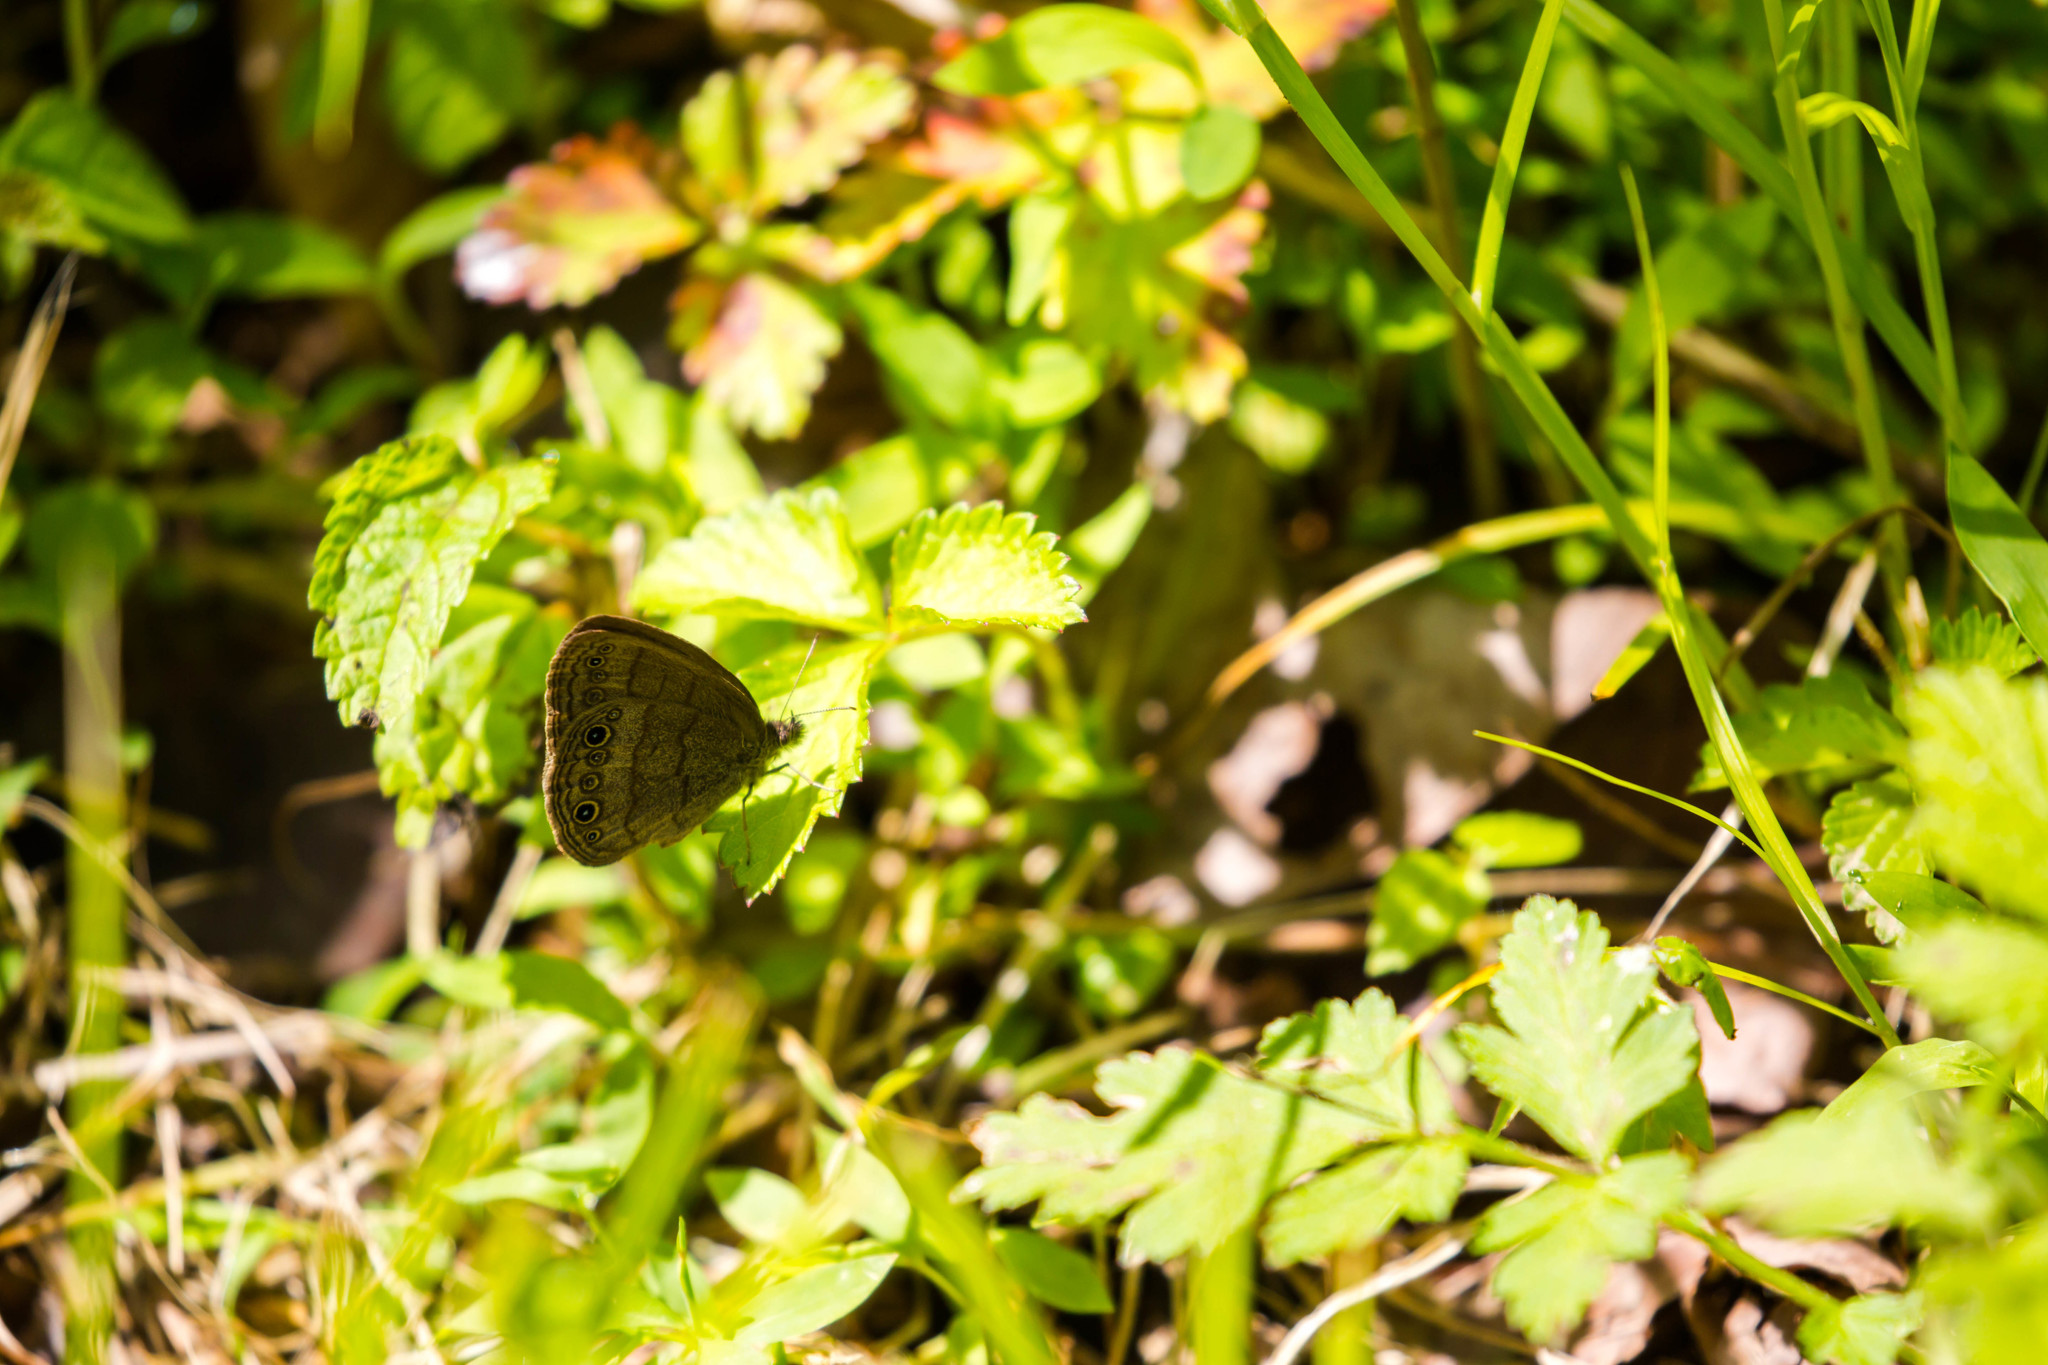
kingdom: Animalia
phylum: Arthropoda
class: Insecta
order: Lepidoptera
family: Nymphalidae
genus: Hermeuptychia
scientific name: Hermeuptychia hermes
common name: Hermes satyr
